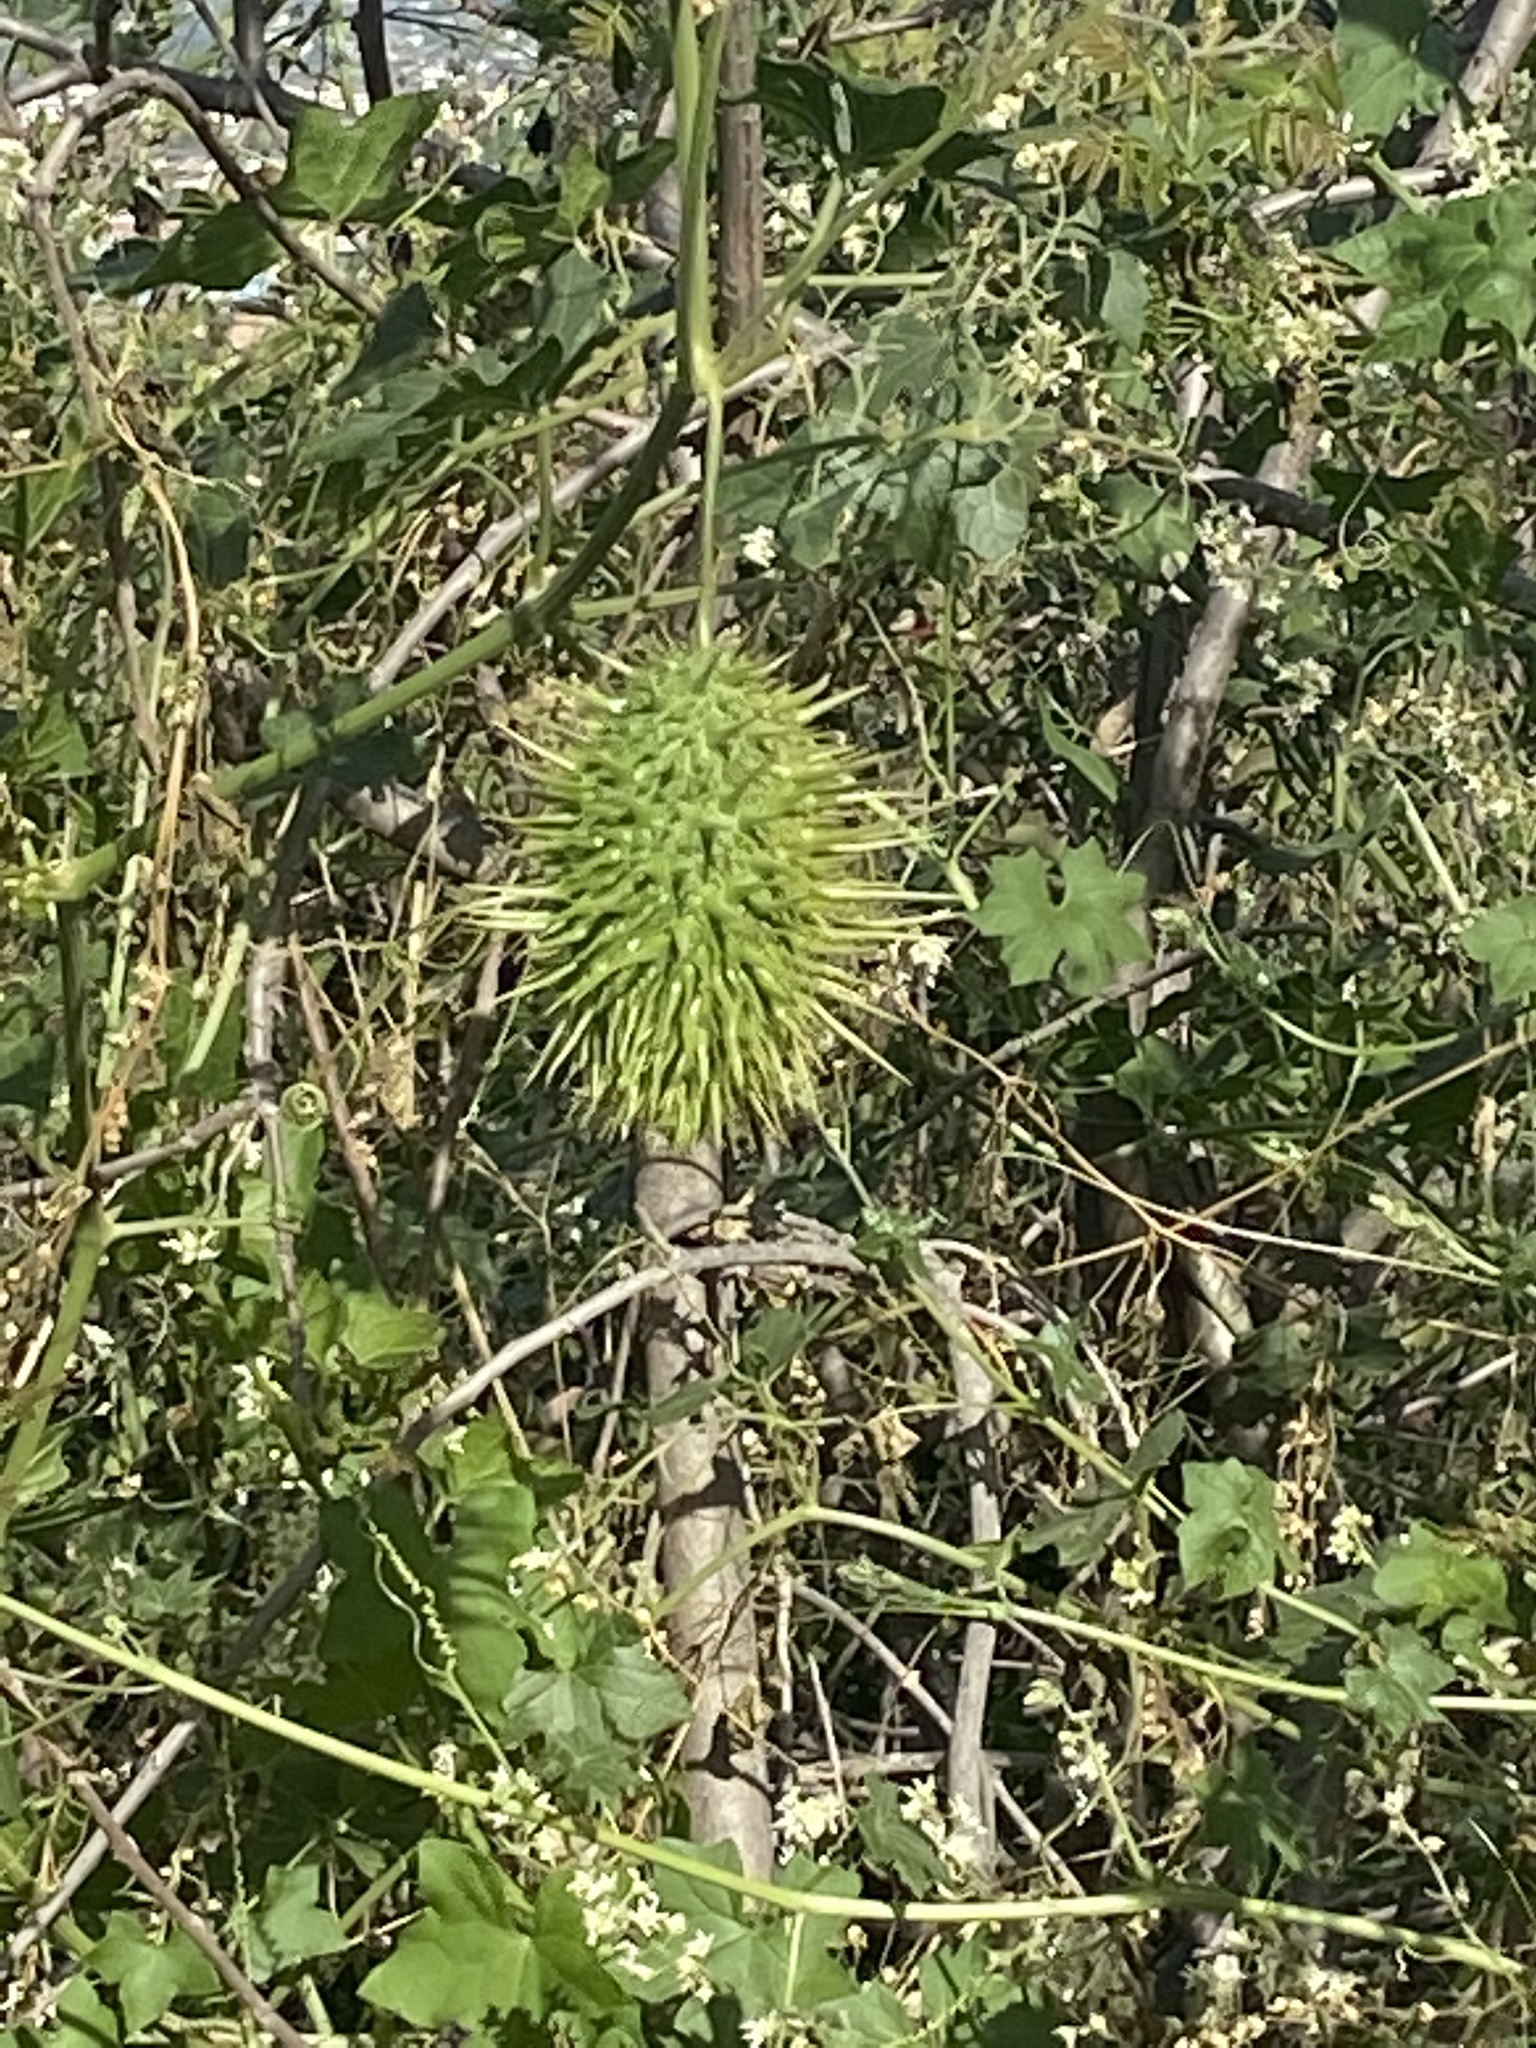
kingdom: Plantae
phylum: Tracheophyta
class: Magnoliopsida
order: Cucurbitales
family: Cucurbitaceae
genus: Marah
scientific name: Marah macrocarpa
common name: Cucamonga manroot
